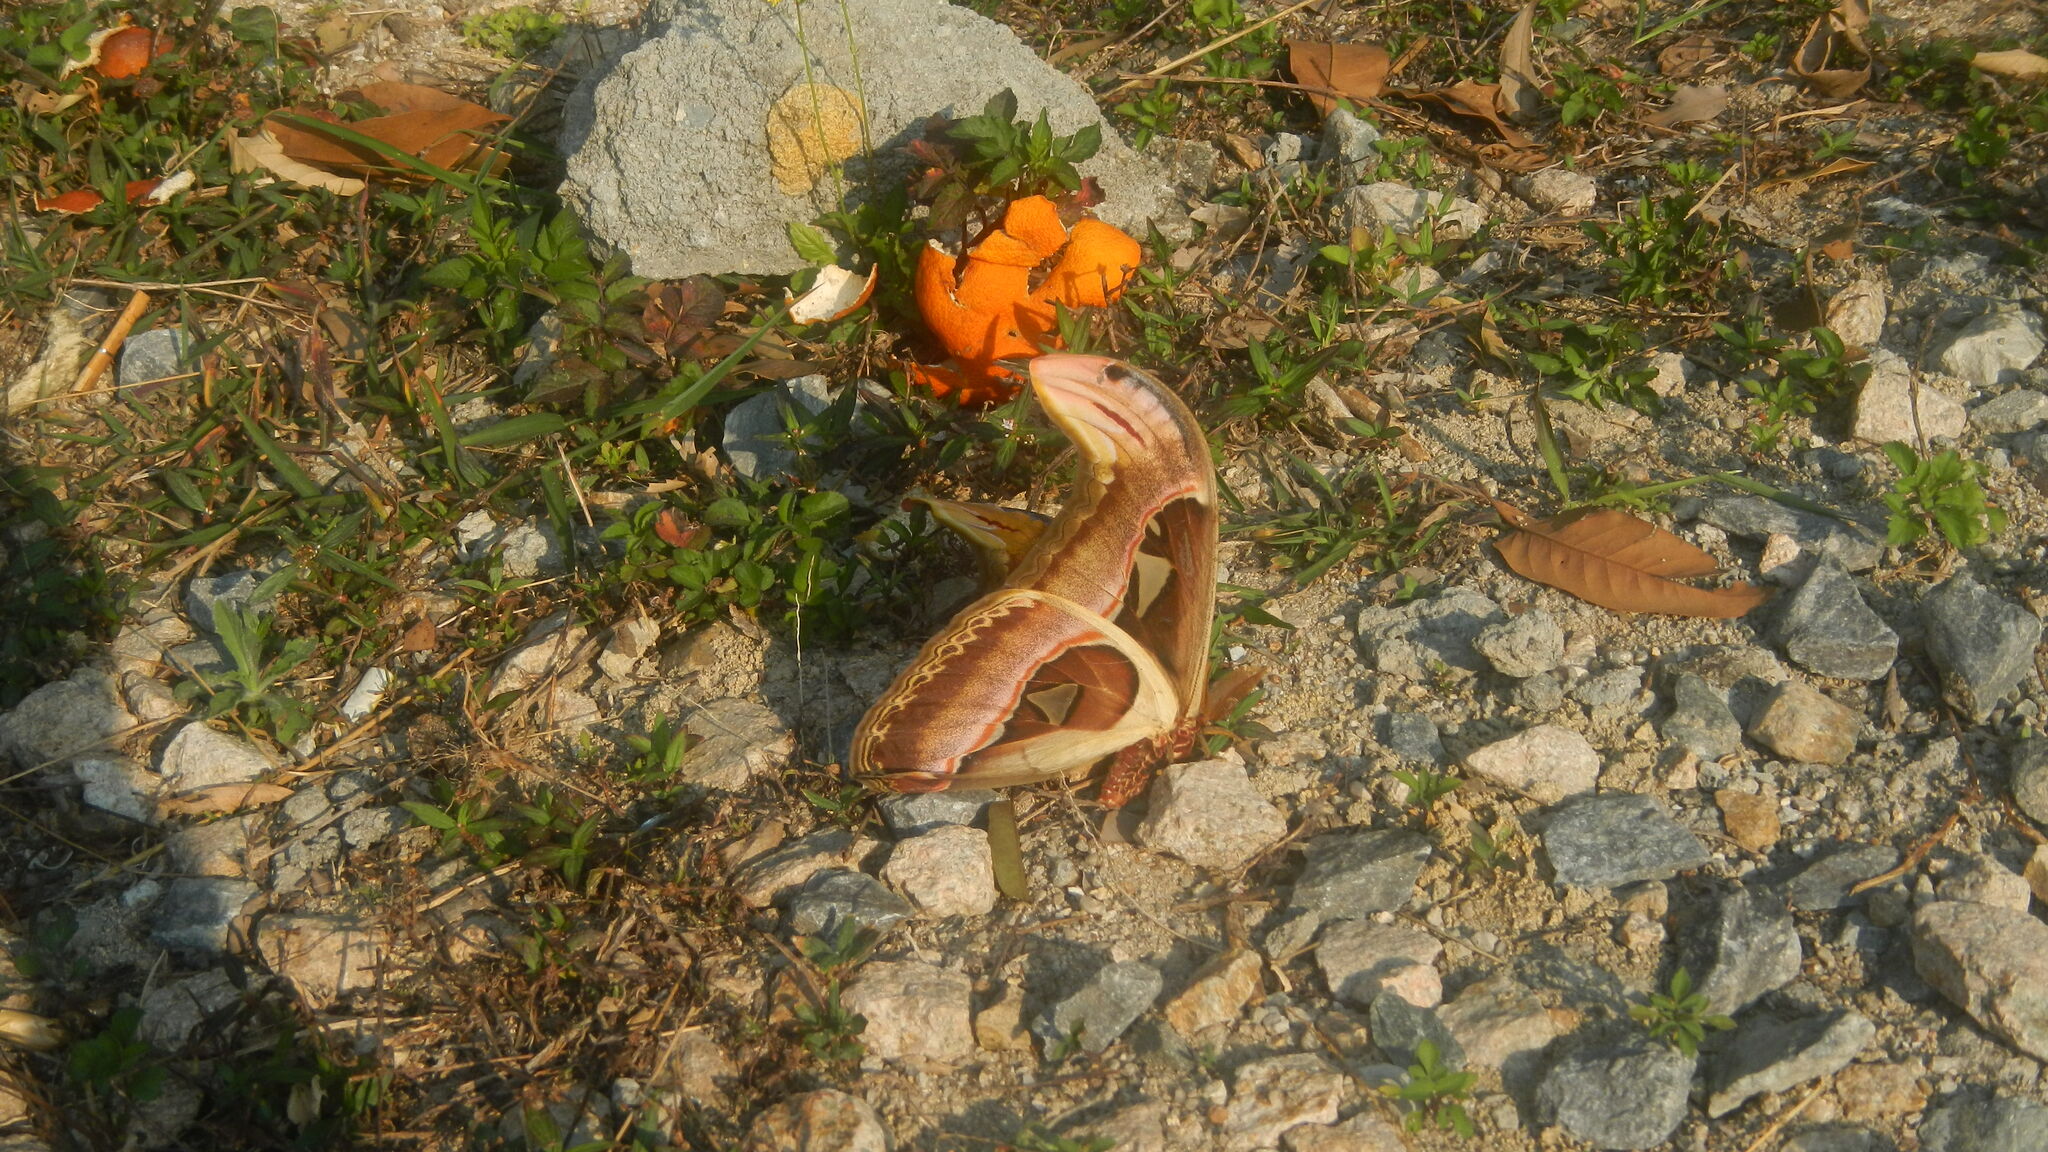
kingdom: Animalia
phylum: Arthropoda
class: Insecta
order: Lepidoptera
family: Saturniidae
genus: Attacus
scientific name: Attacus atlas
